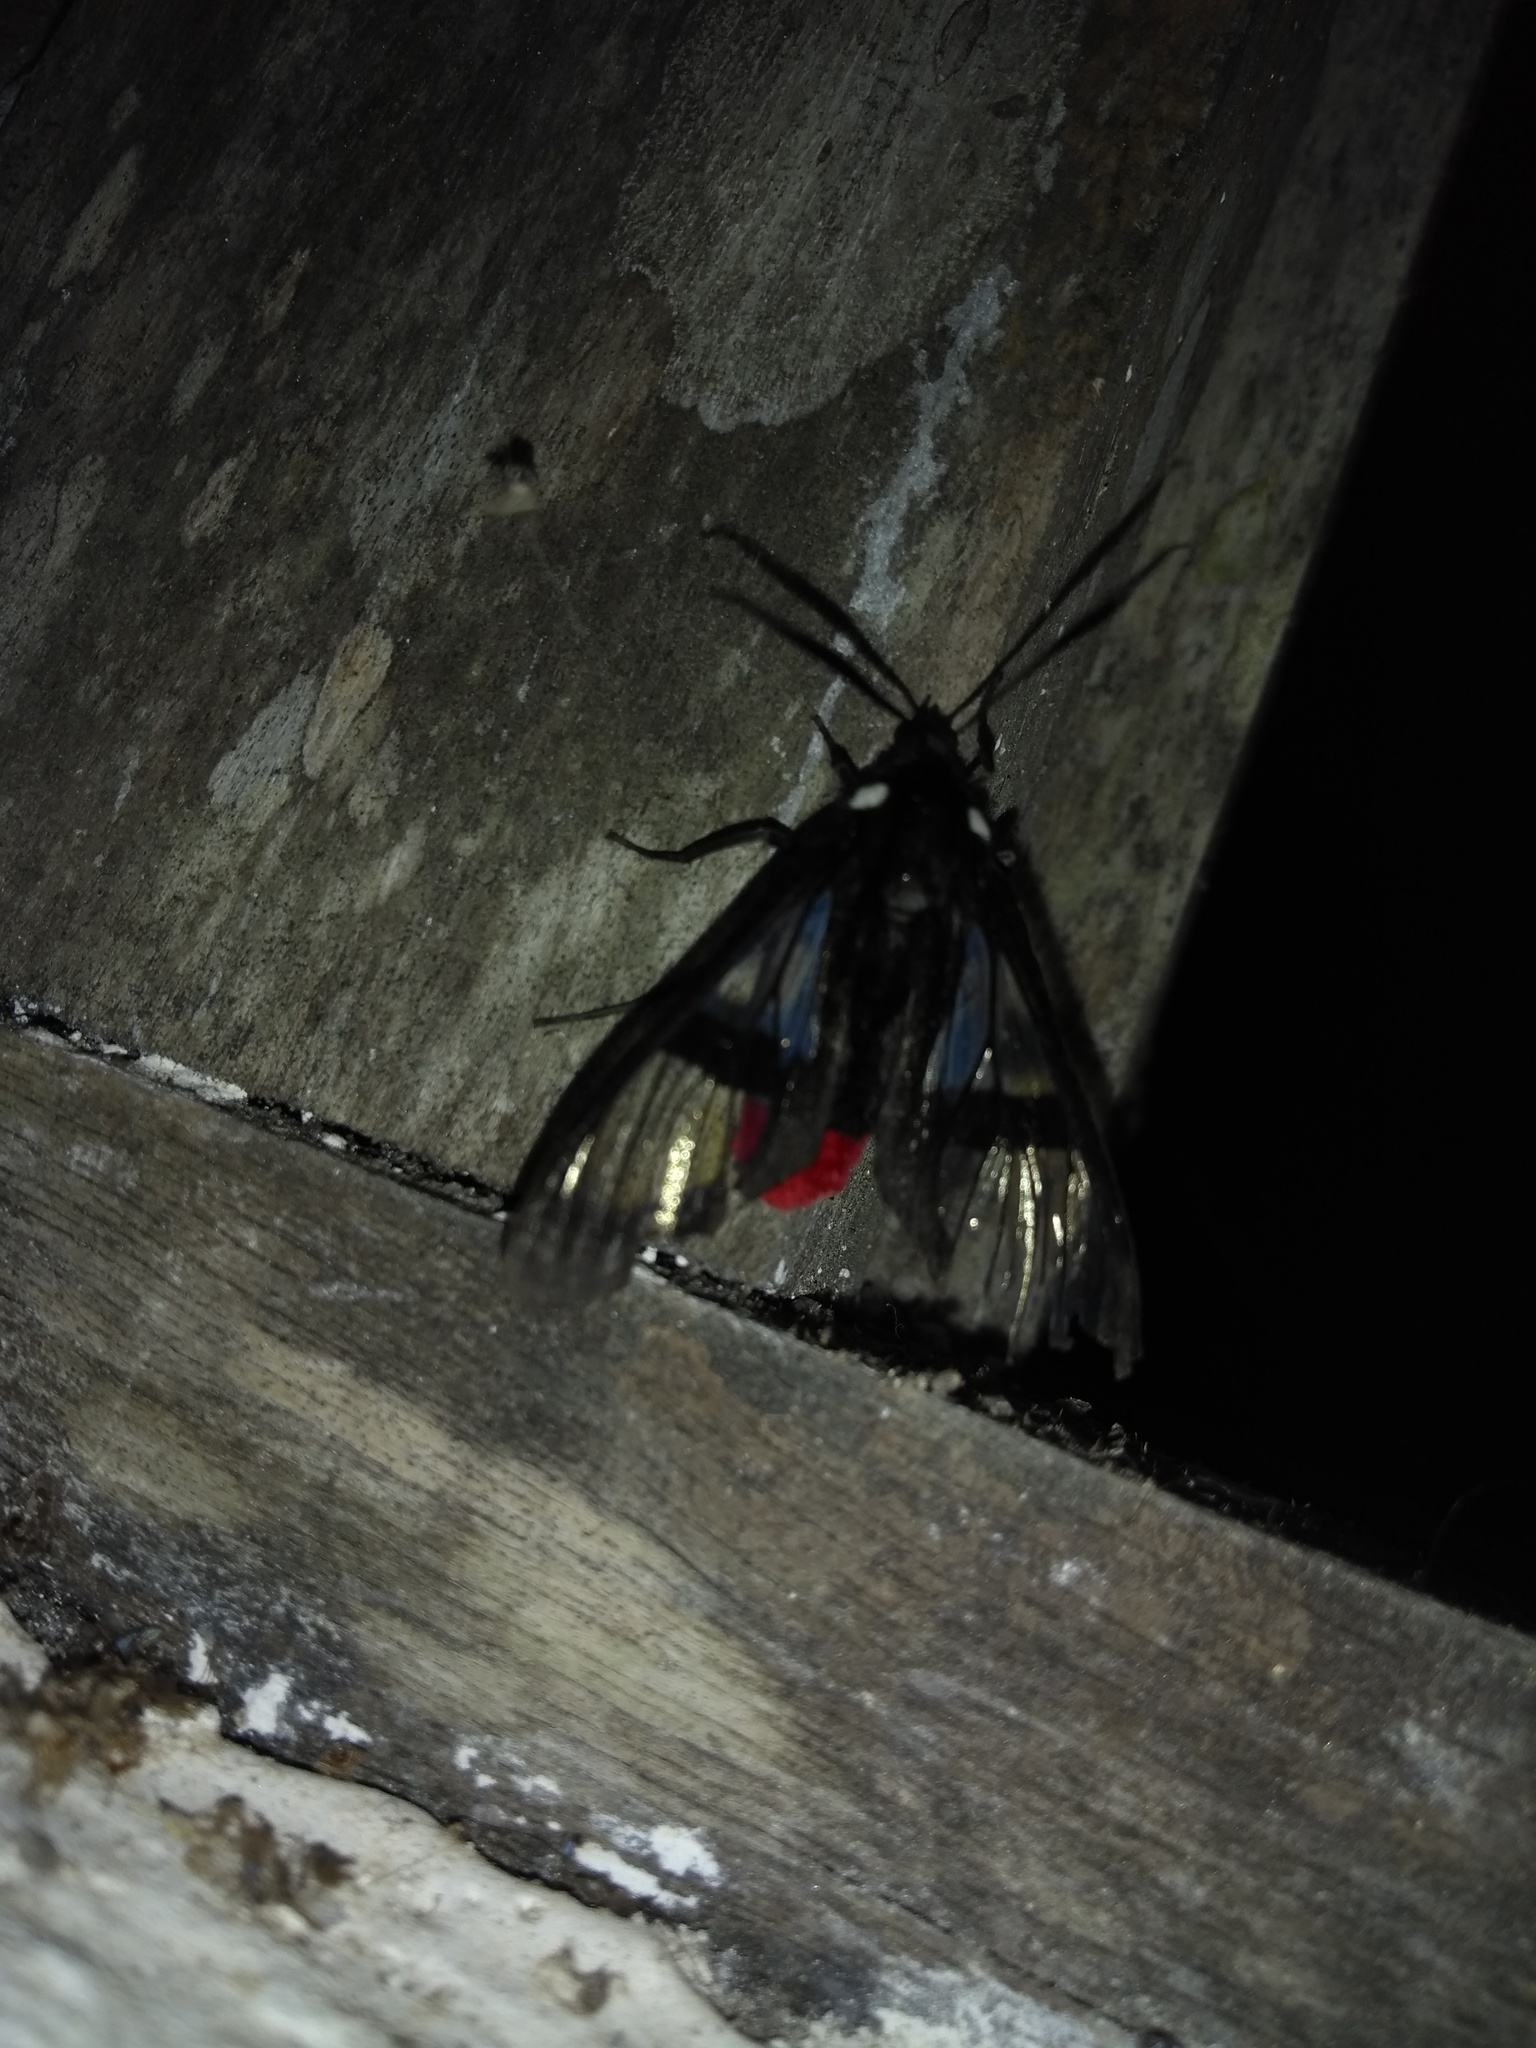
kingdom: Animalia
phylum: Arthropoda
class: Insecta
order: Lepidoptera
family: Erebidae
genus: Aethria
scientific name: Aethria paula
